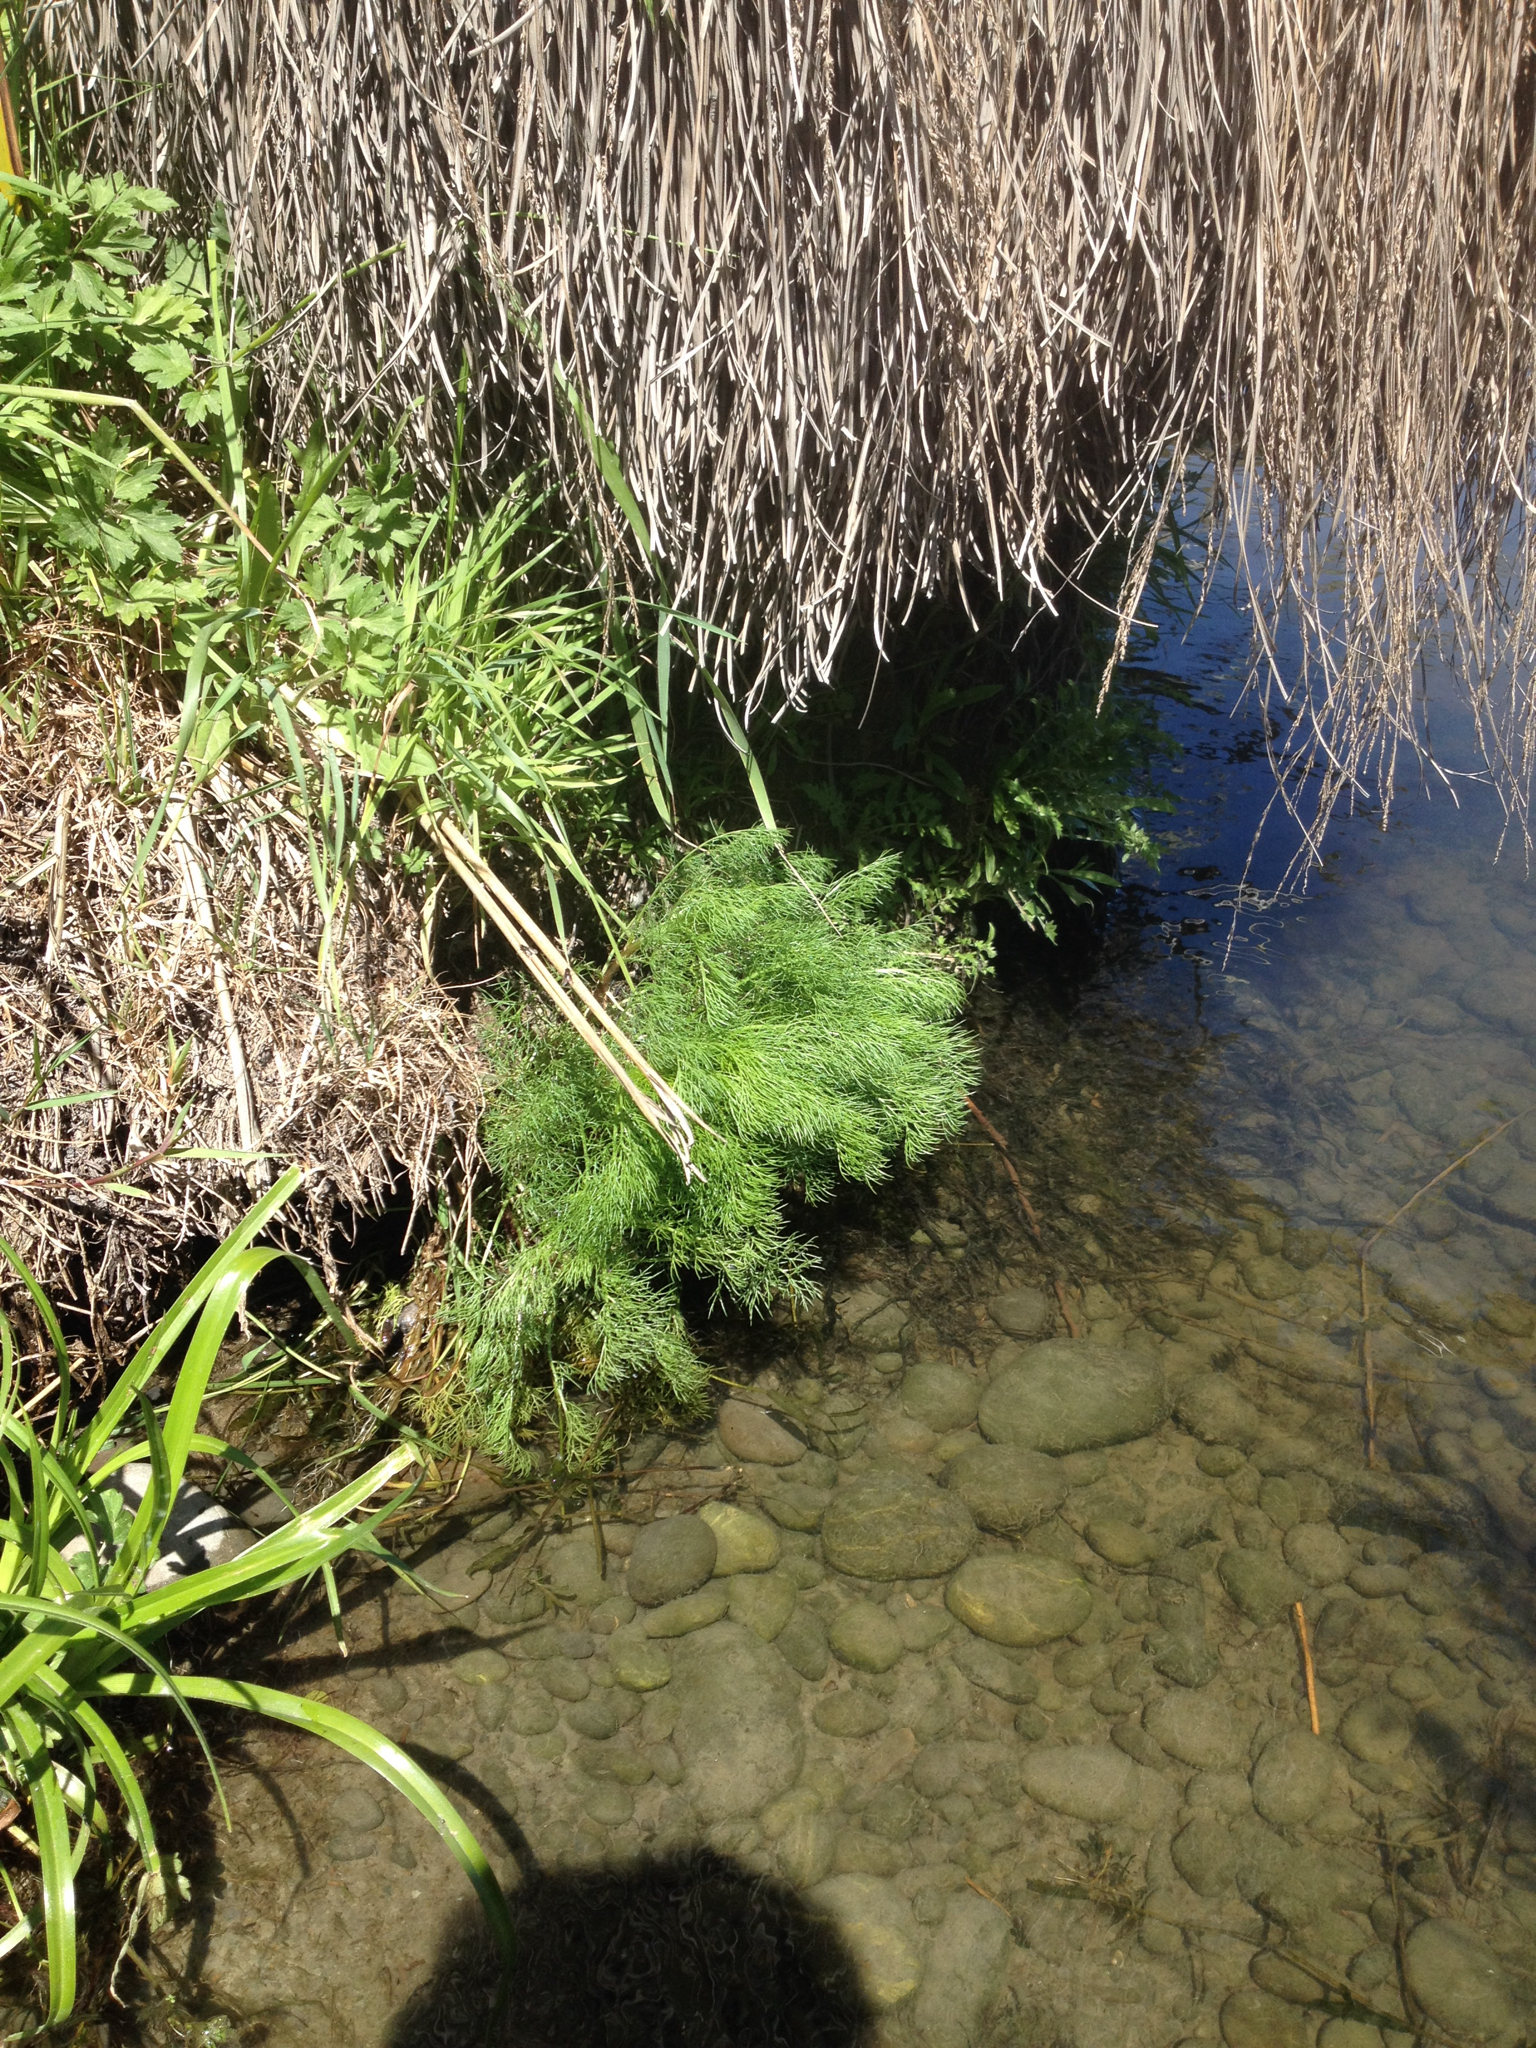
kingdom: Plantae
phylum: Tracheophyta
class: Magnoliopsida
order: Asterales
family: Asteraceae
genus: Tripleurospermum
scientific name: Tripleurospermum inodorum
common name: Scentless mayweed
